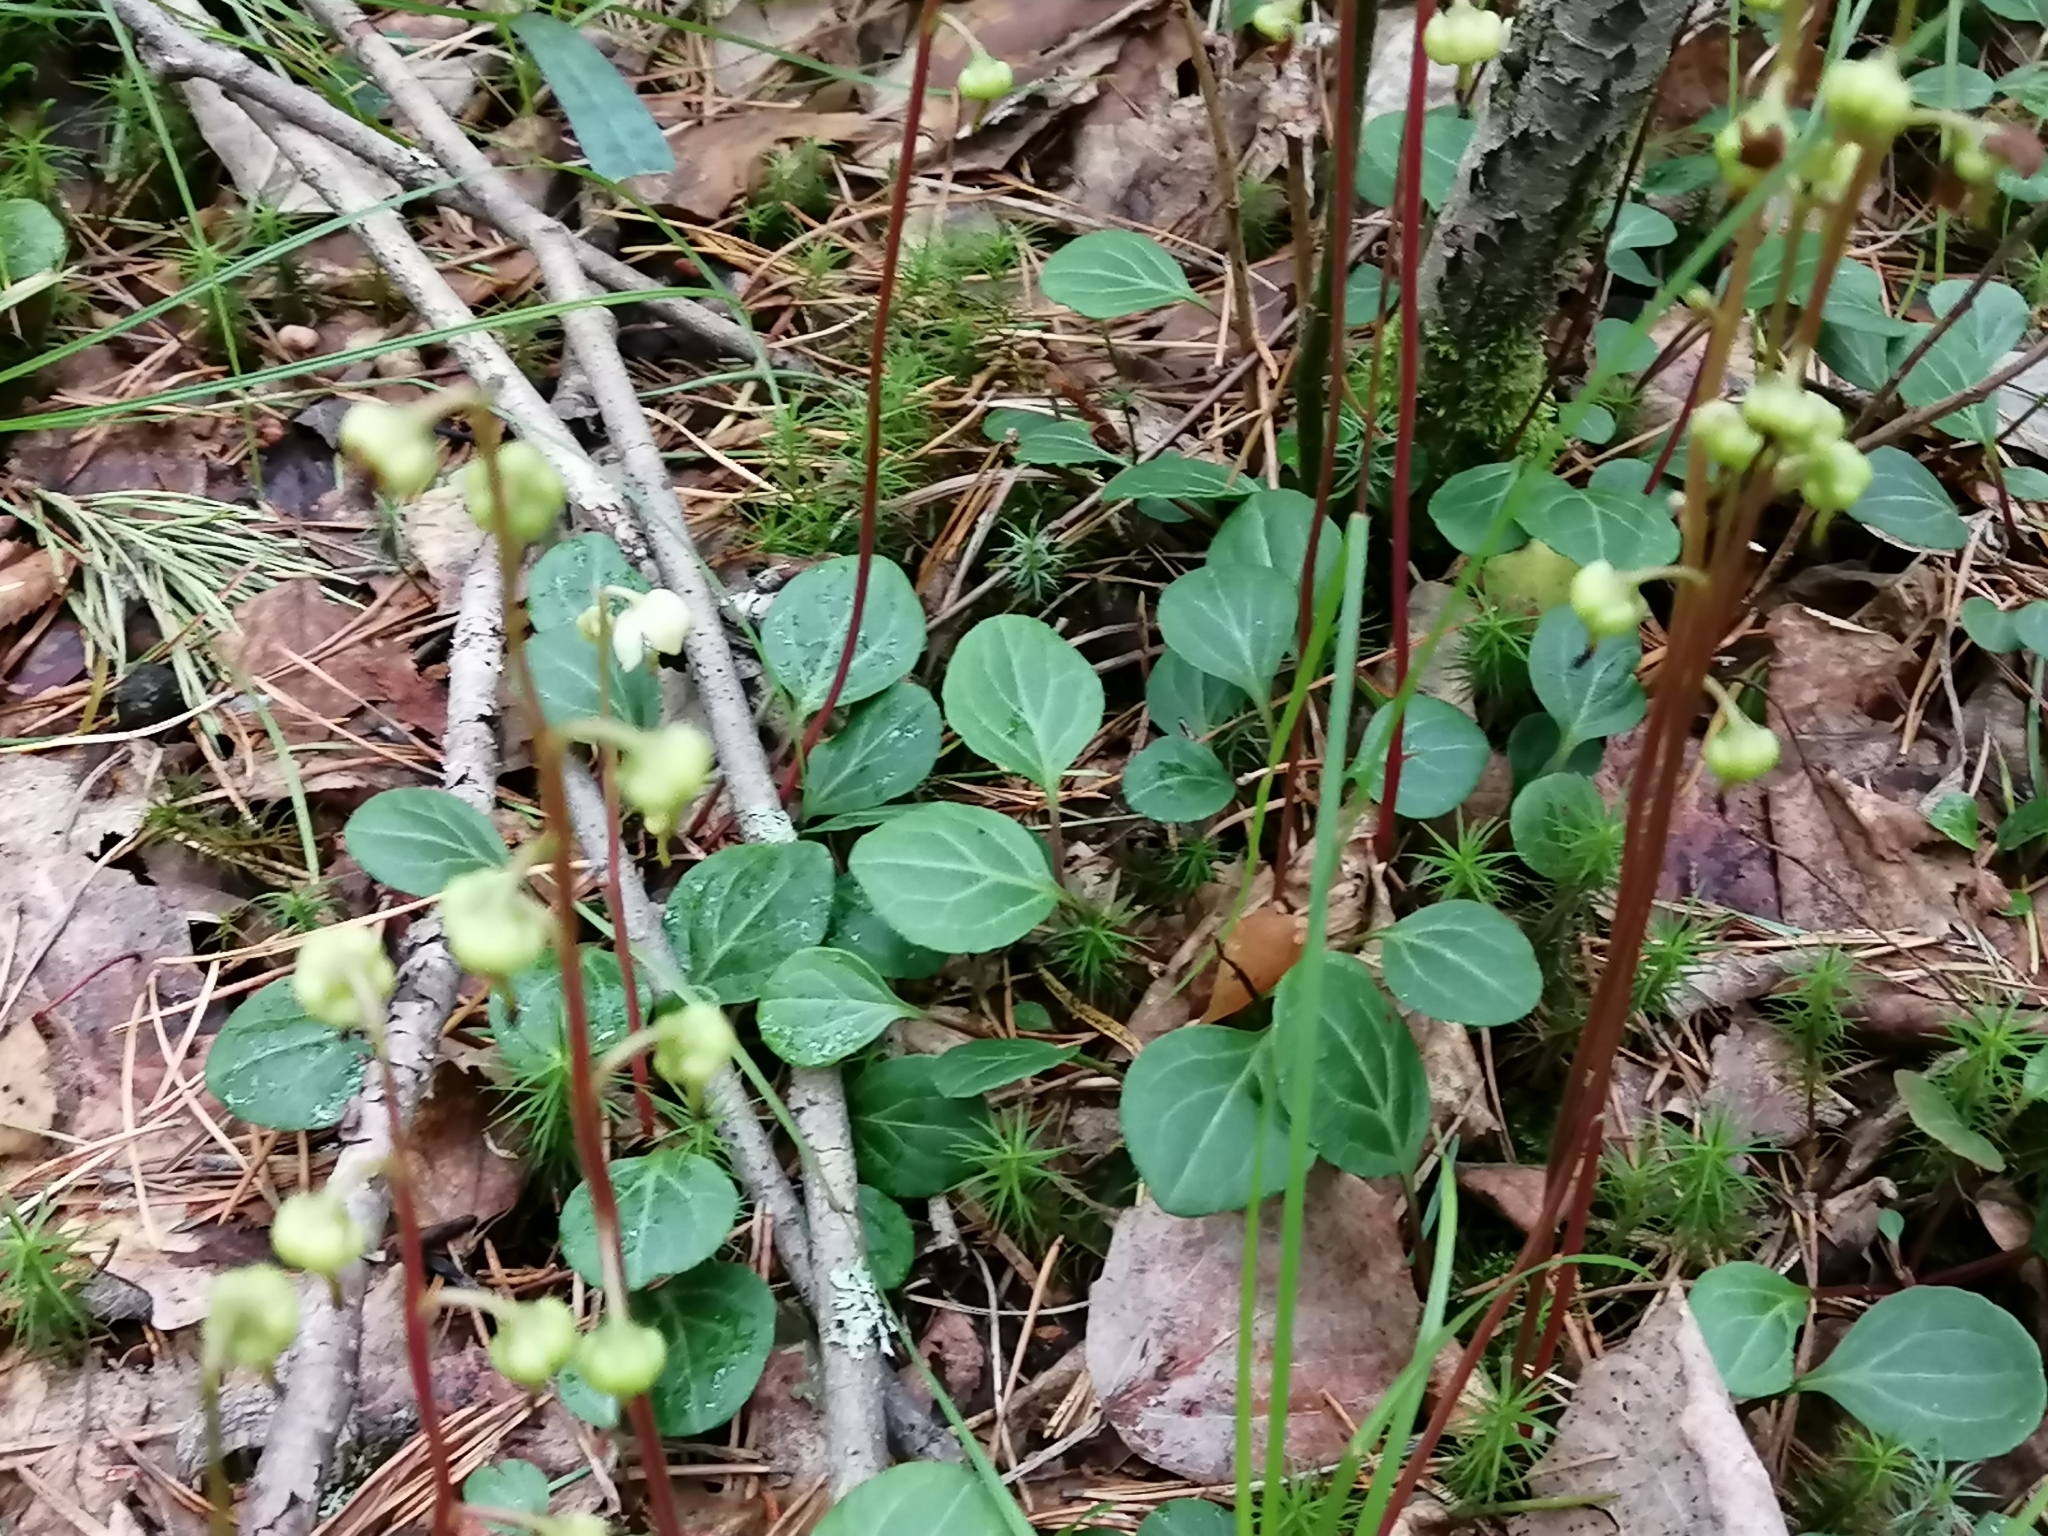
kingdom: Plantae
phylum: Tracheophyta
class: Magnoliopsida
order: Ericales
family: Ericaceae
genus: Pyrola
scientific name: Pyrola chlorantha
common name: Green wintergreen
